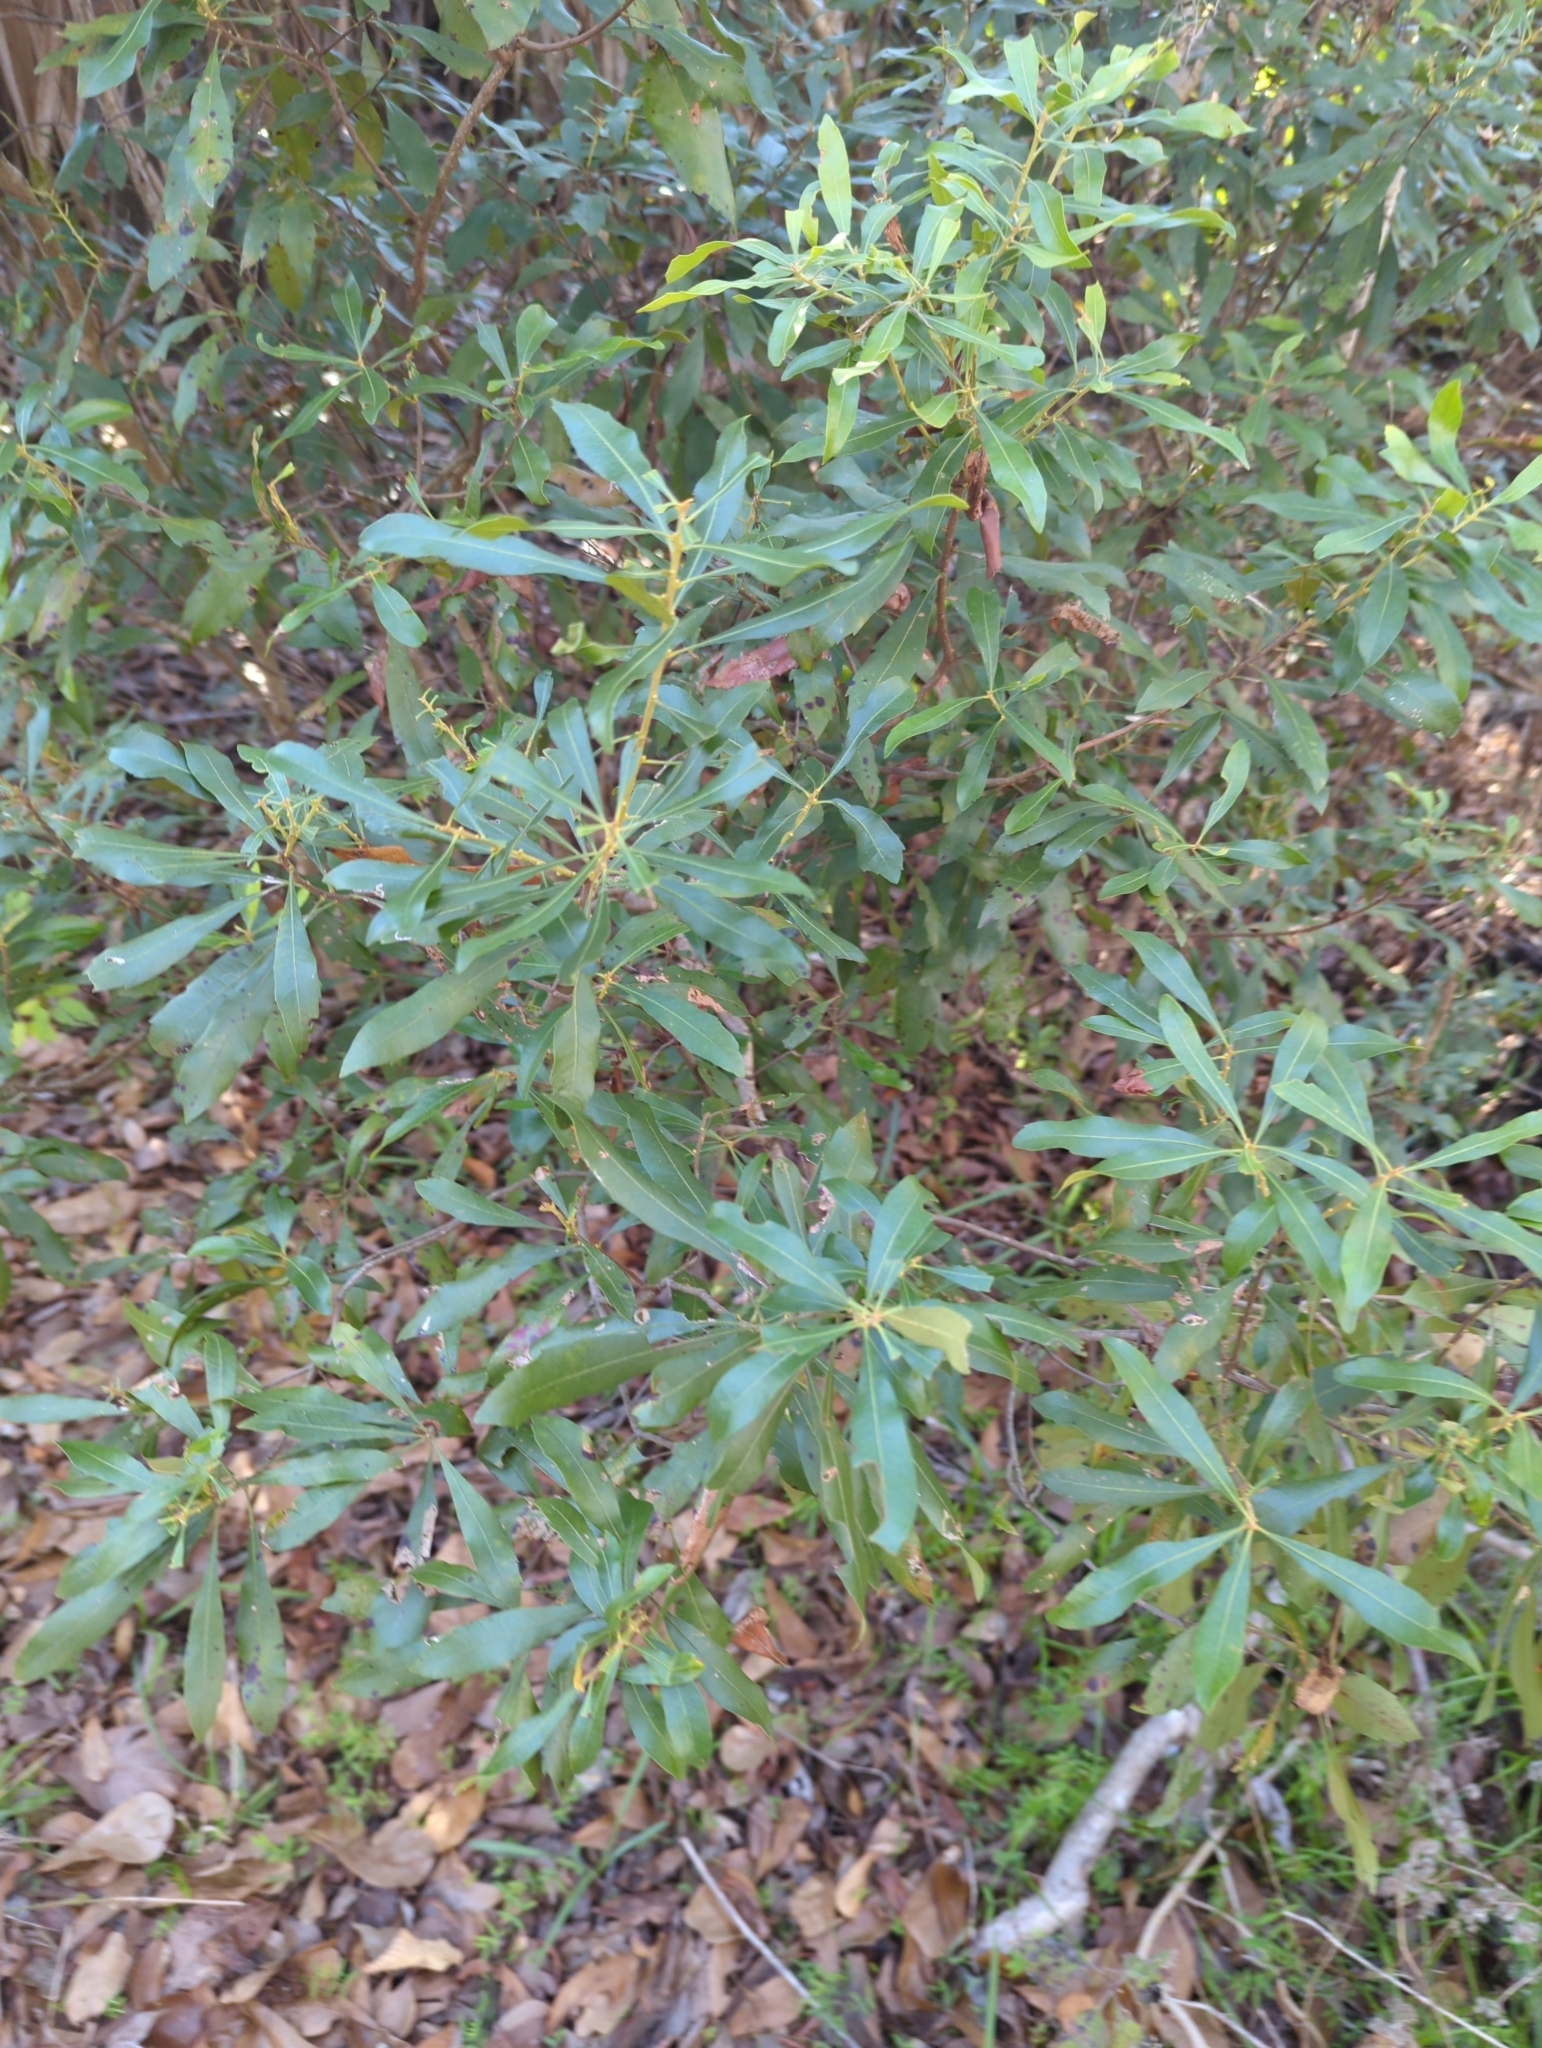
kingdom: Plantae
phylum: Tracheophyta
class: Magnoliopsida
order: Fagales
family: Myricaceae
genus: Morella
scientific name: Morella cerifera
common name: Wax myrtle
